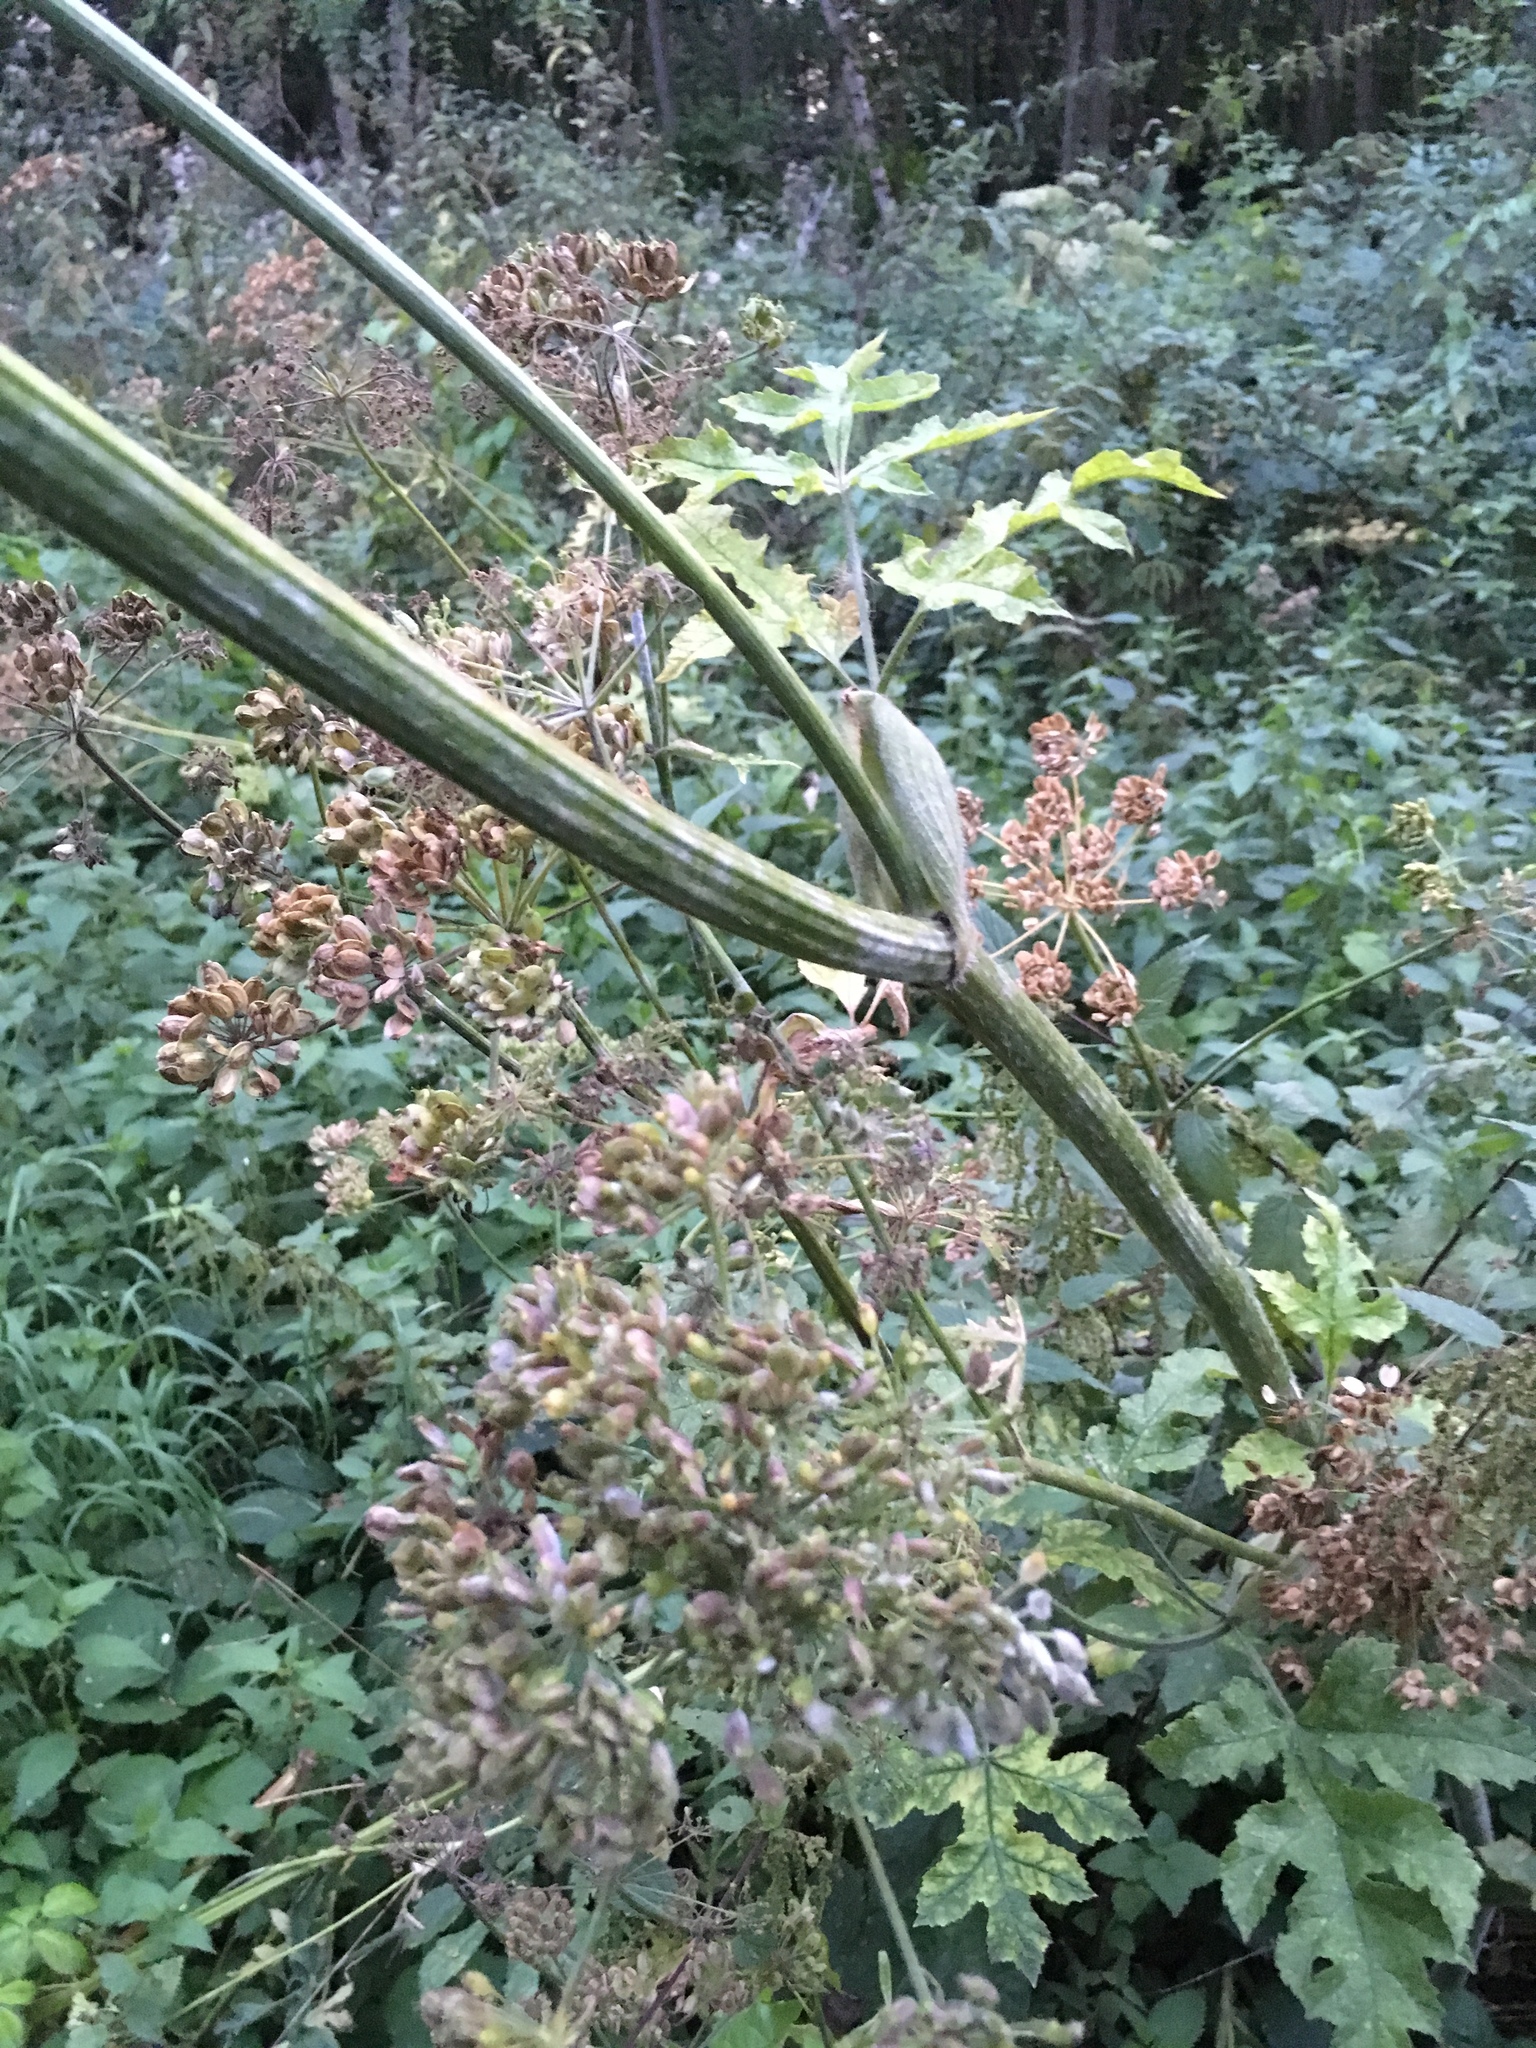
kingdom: Plantae
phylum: Tracheophyta
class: Magnoliopsida
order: Apiales
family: Apiaceae
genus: Heracleum
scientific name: Heracleum sphondylium
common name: Hogweed
